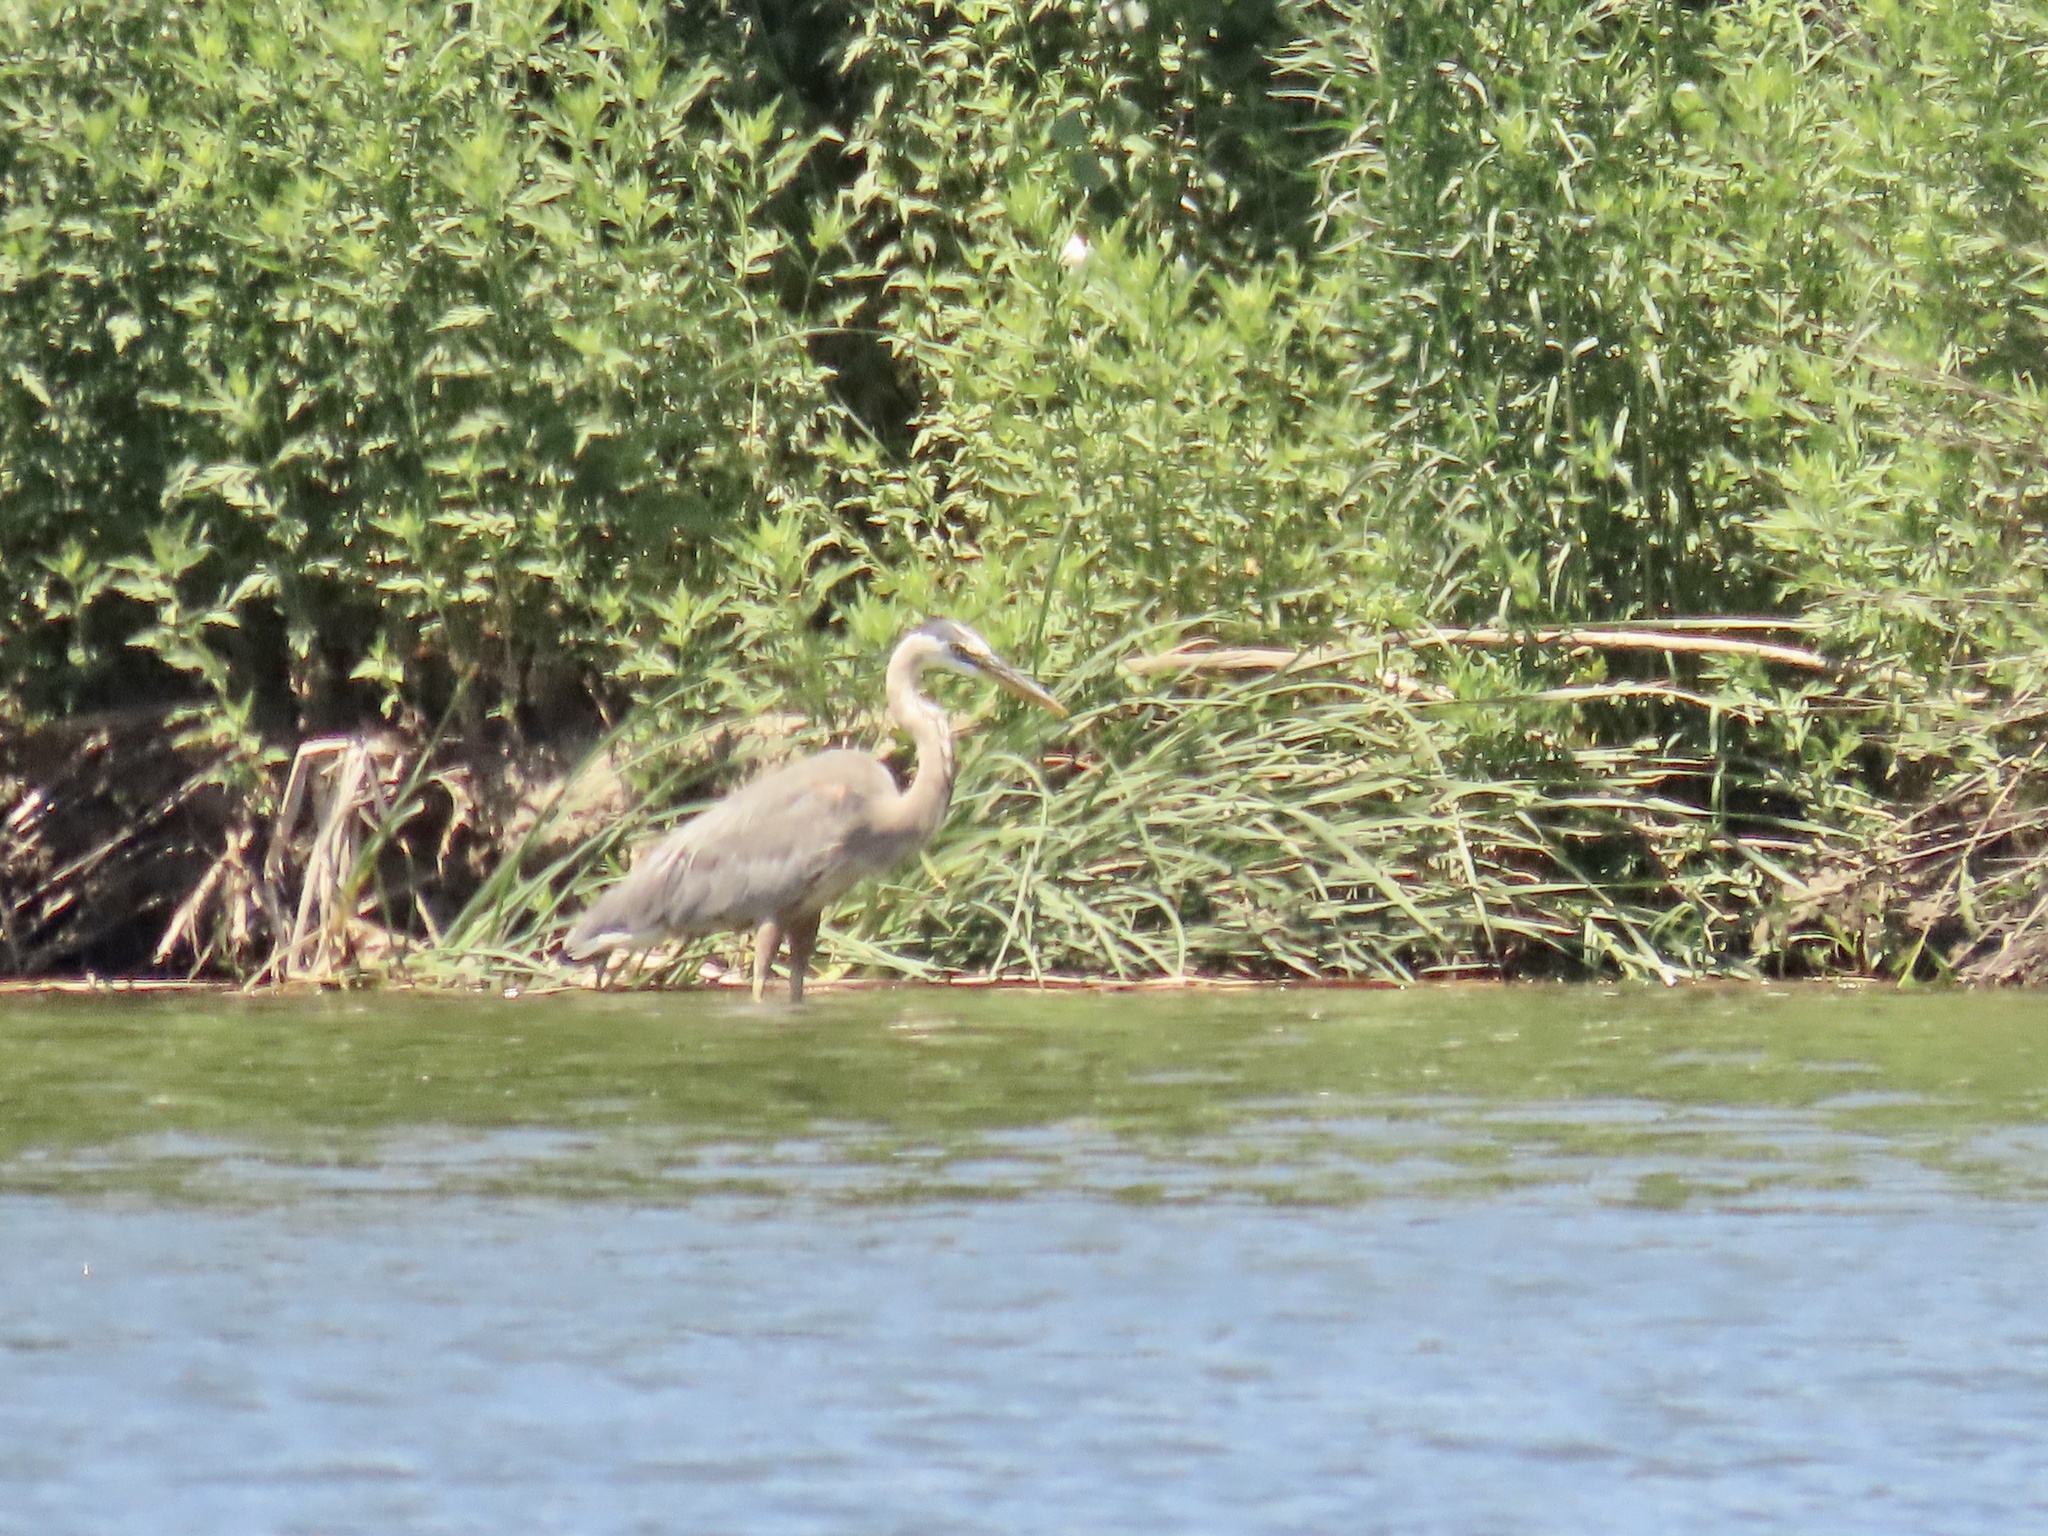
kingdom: Animalia
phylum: Chordata
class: Aves
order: Pelecaniformes
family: Ardeidae
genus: Ardea
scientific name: Ardea herodias
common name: Great blue heron
